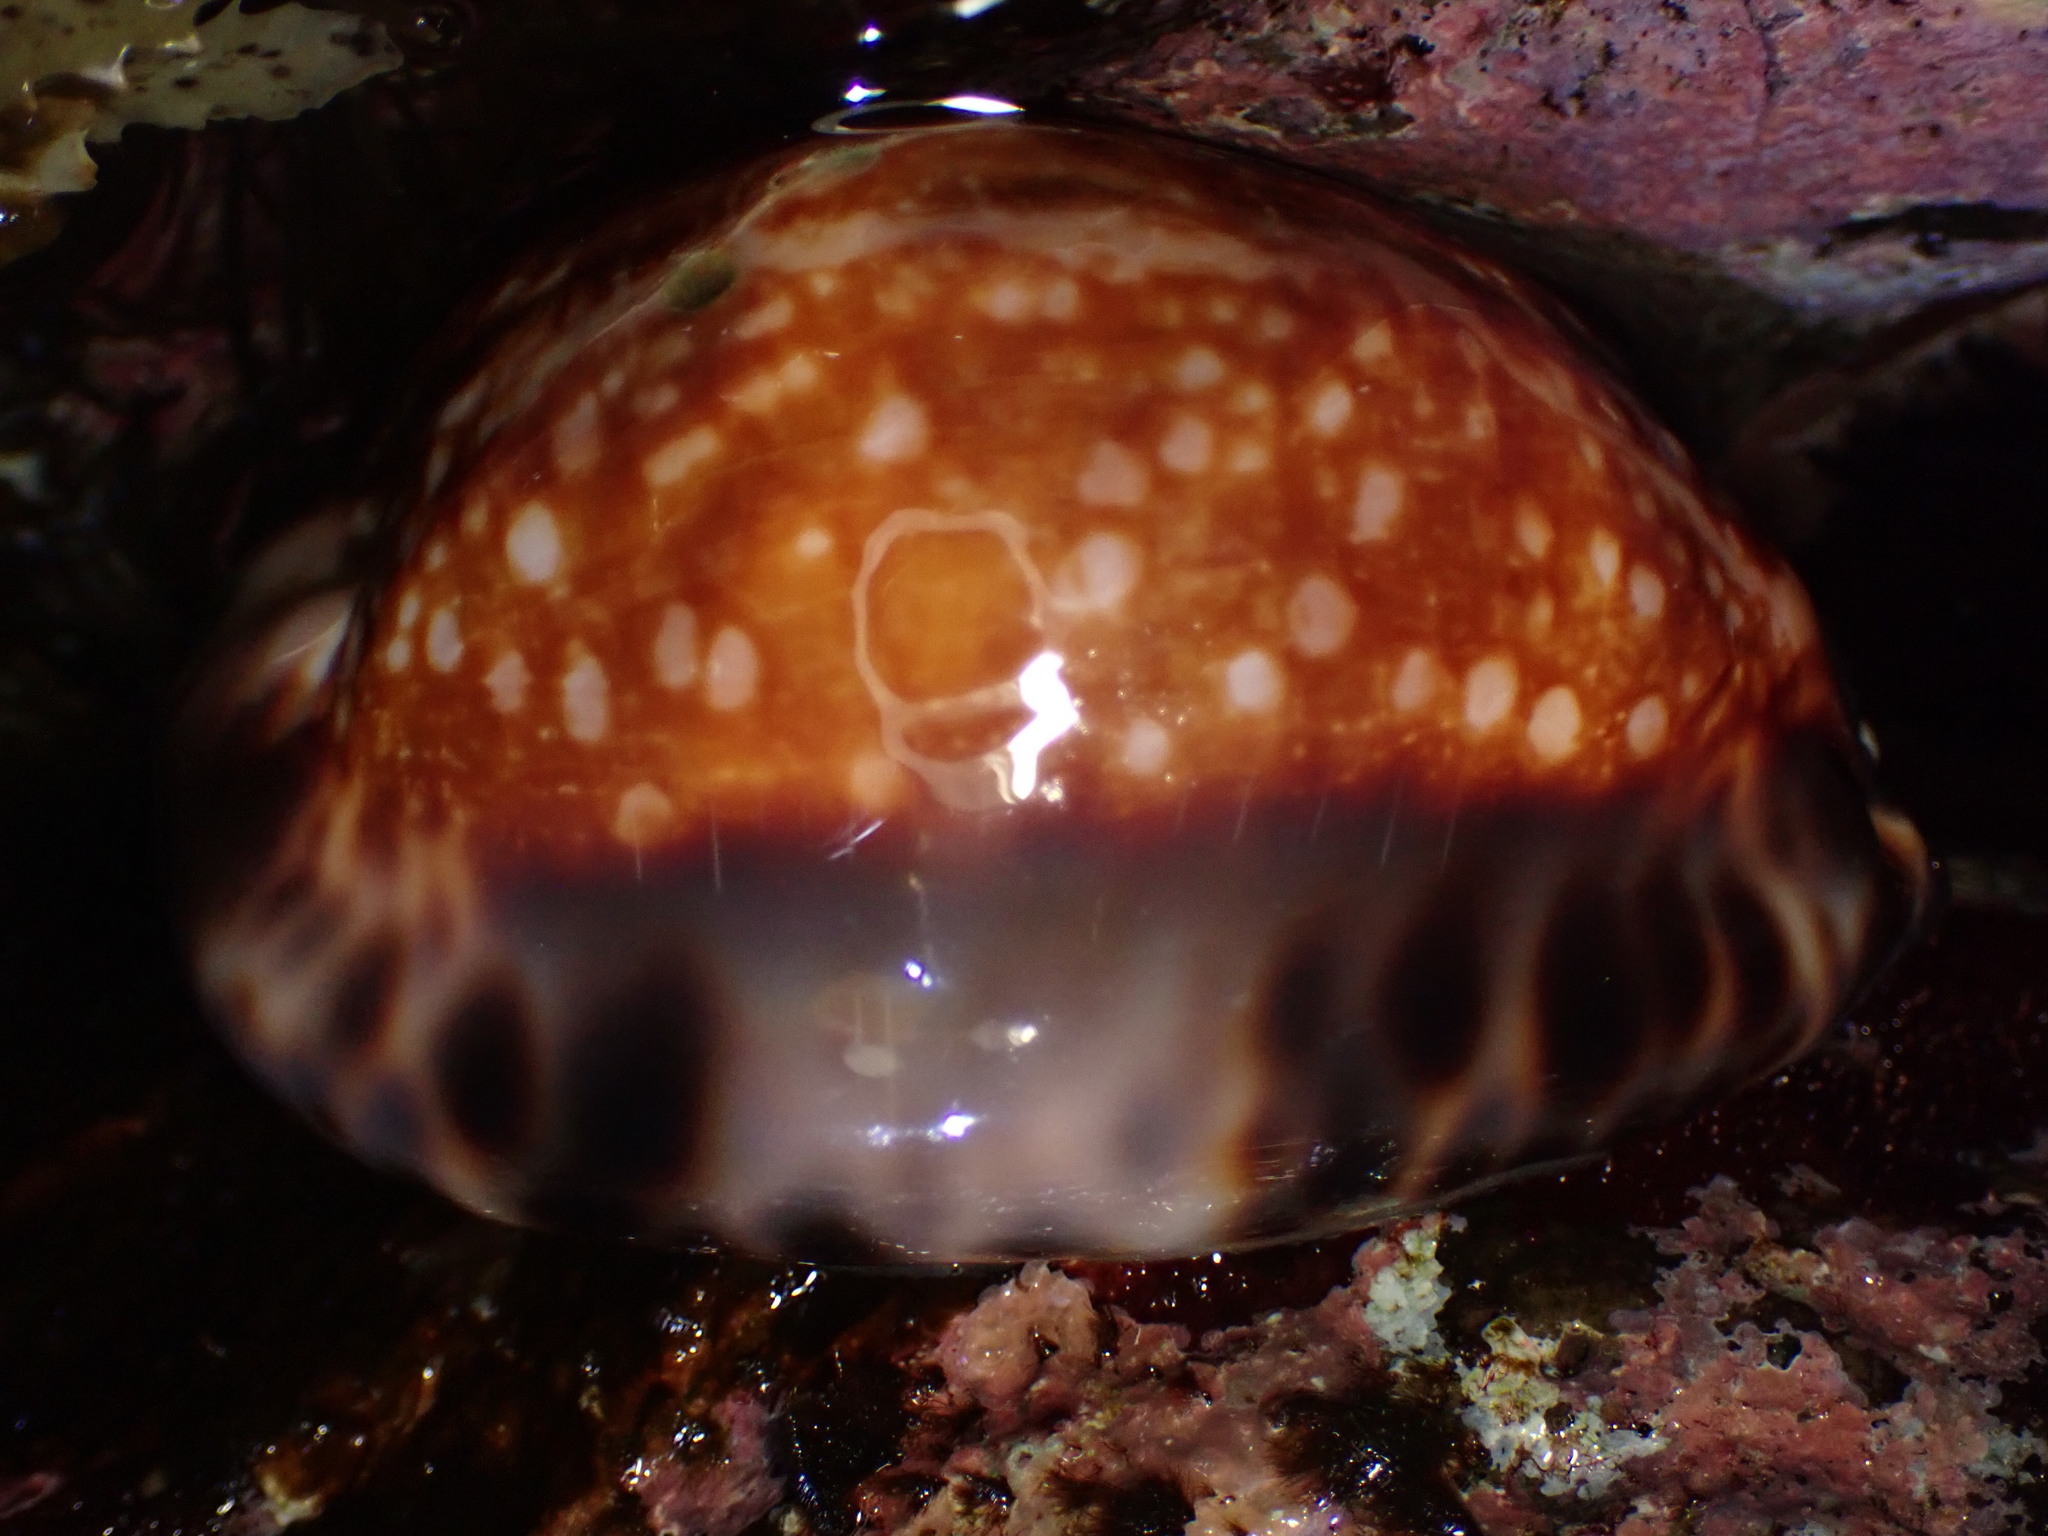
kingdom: Animalia
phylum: Mollusca
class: Gastropoda
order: Littorinimorpha
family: Cypraeidae
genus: Mauritia
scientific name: Mauritia maculifera
